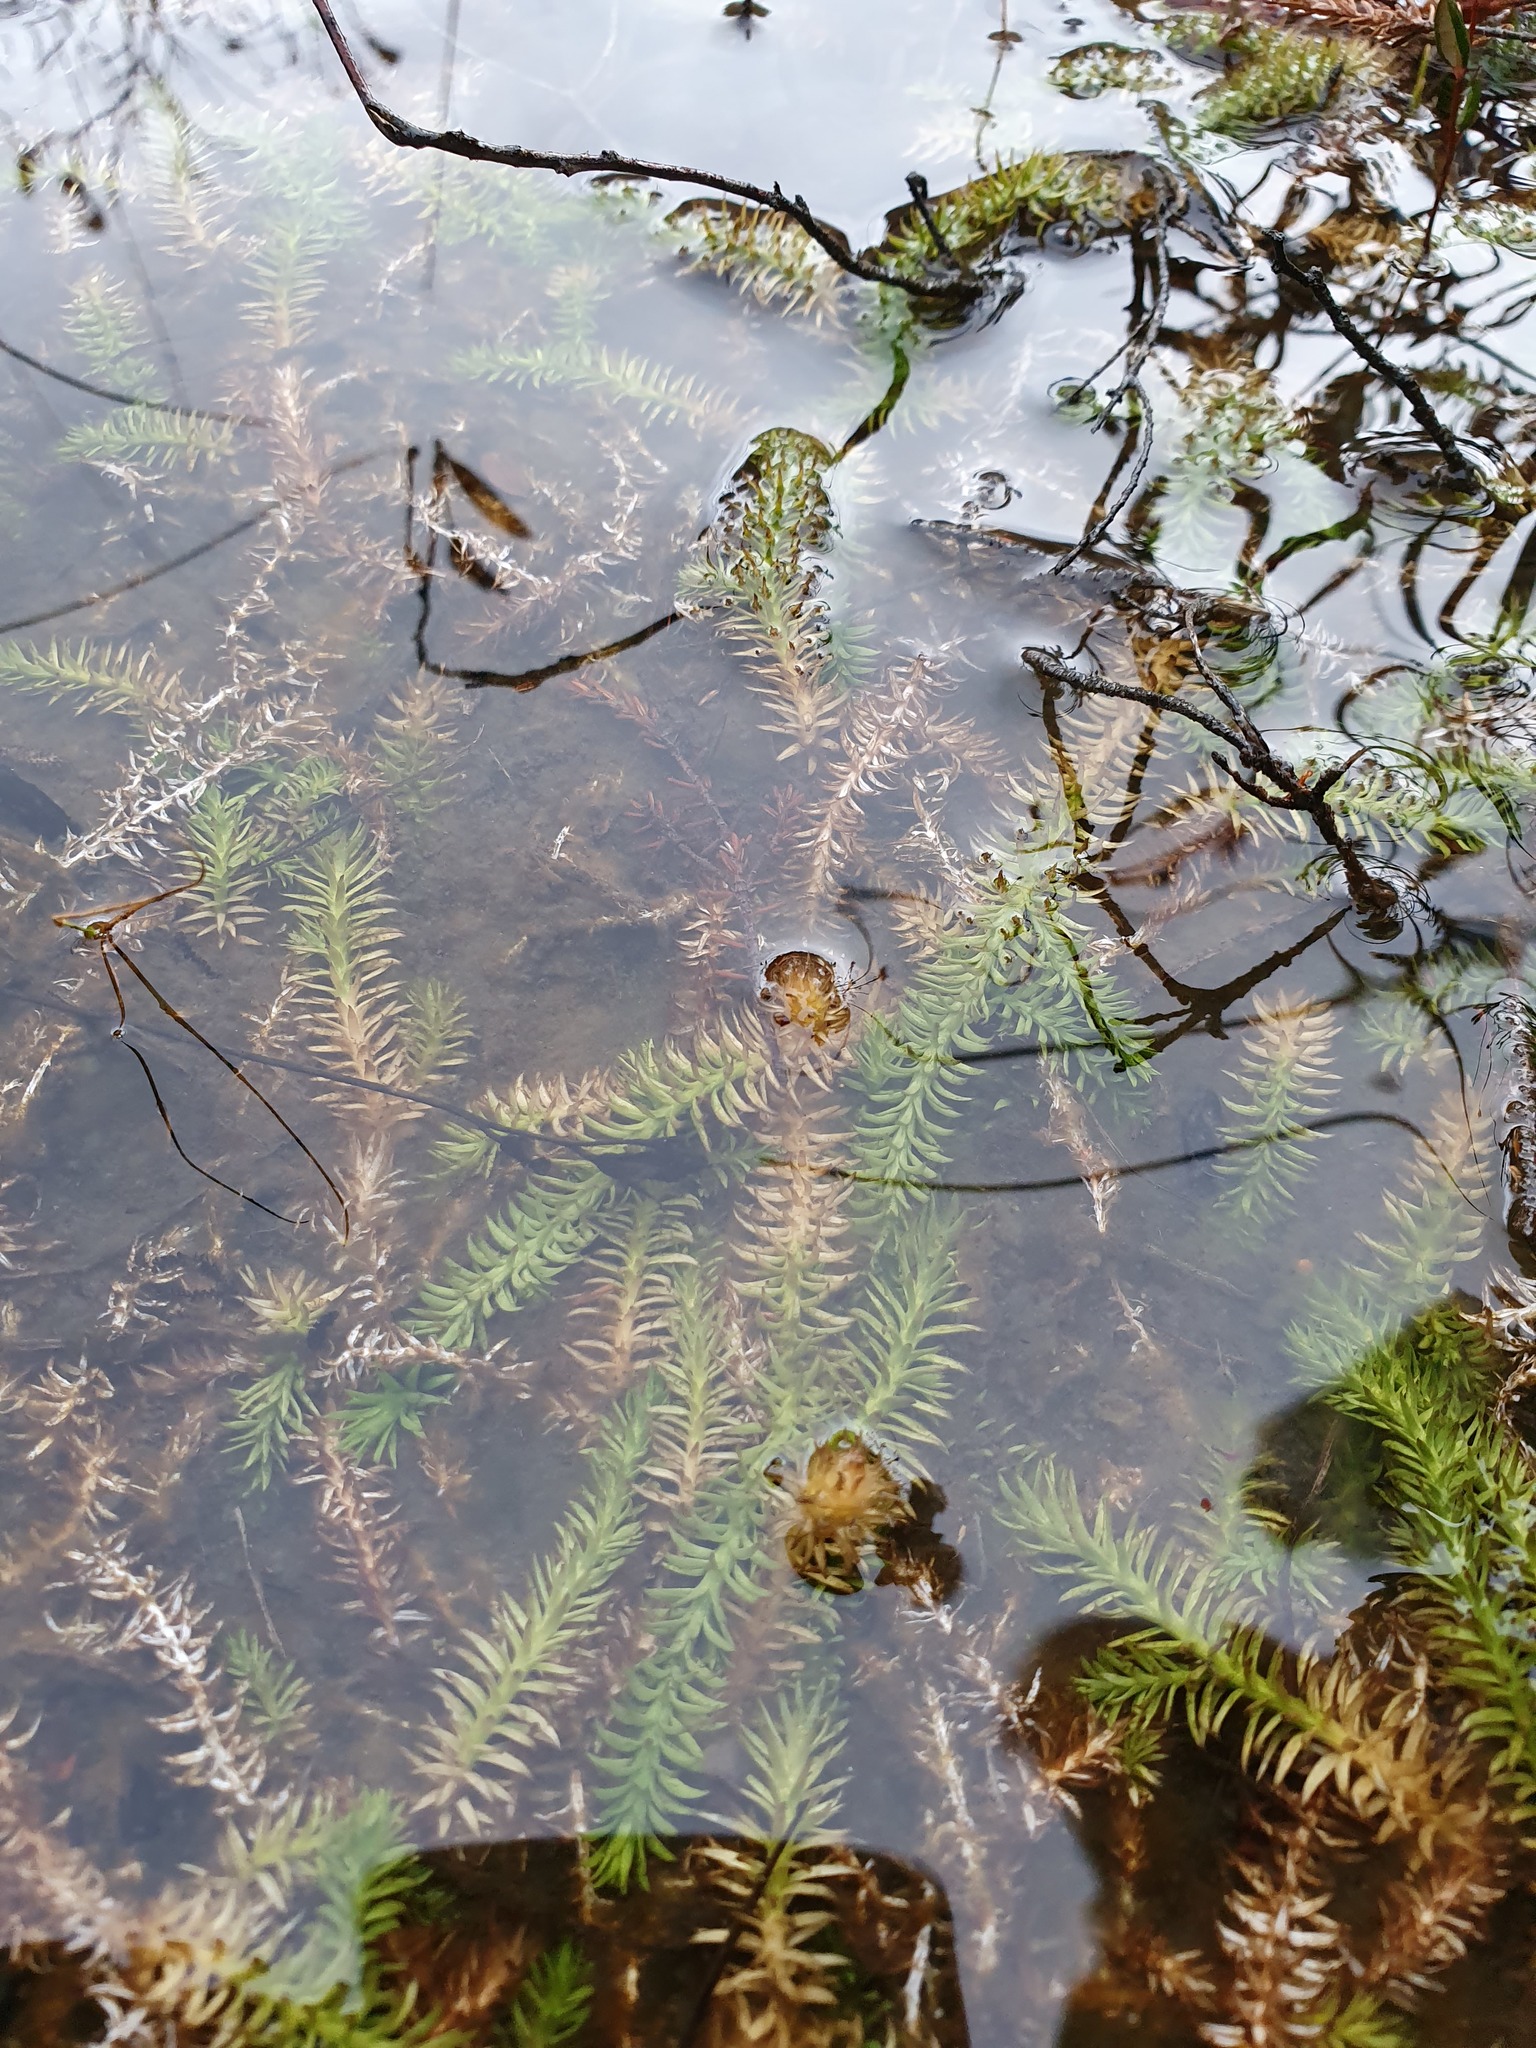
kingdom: Plantae
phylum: Tracheophyta
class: Lycopodiopsida
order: Lycopodiales
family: Lycopodiaceae
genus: Lycopodiella
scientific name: Lycopodiella inundata
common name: Marsh clubmoss
